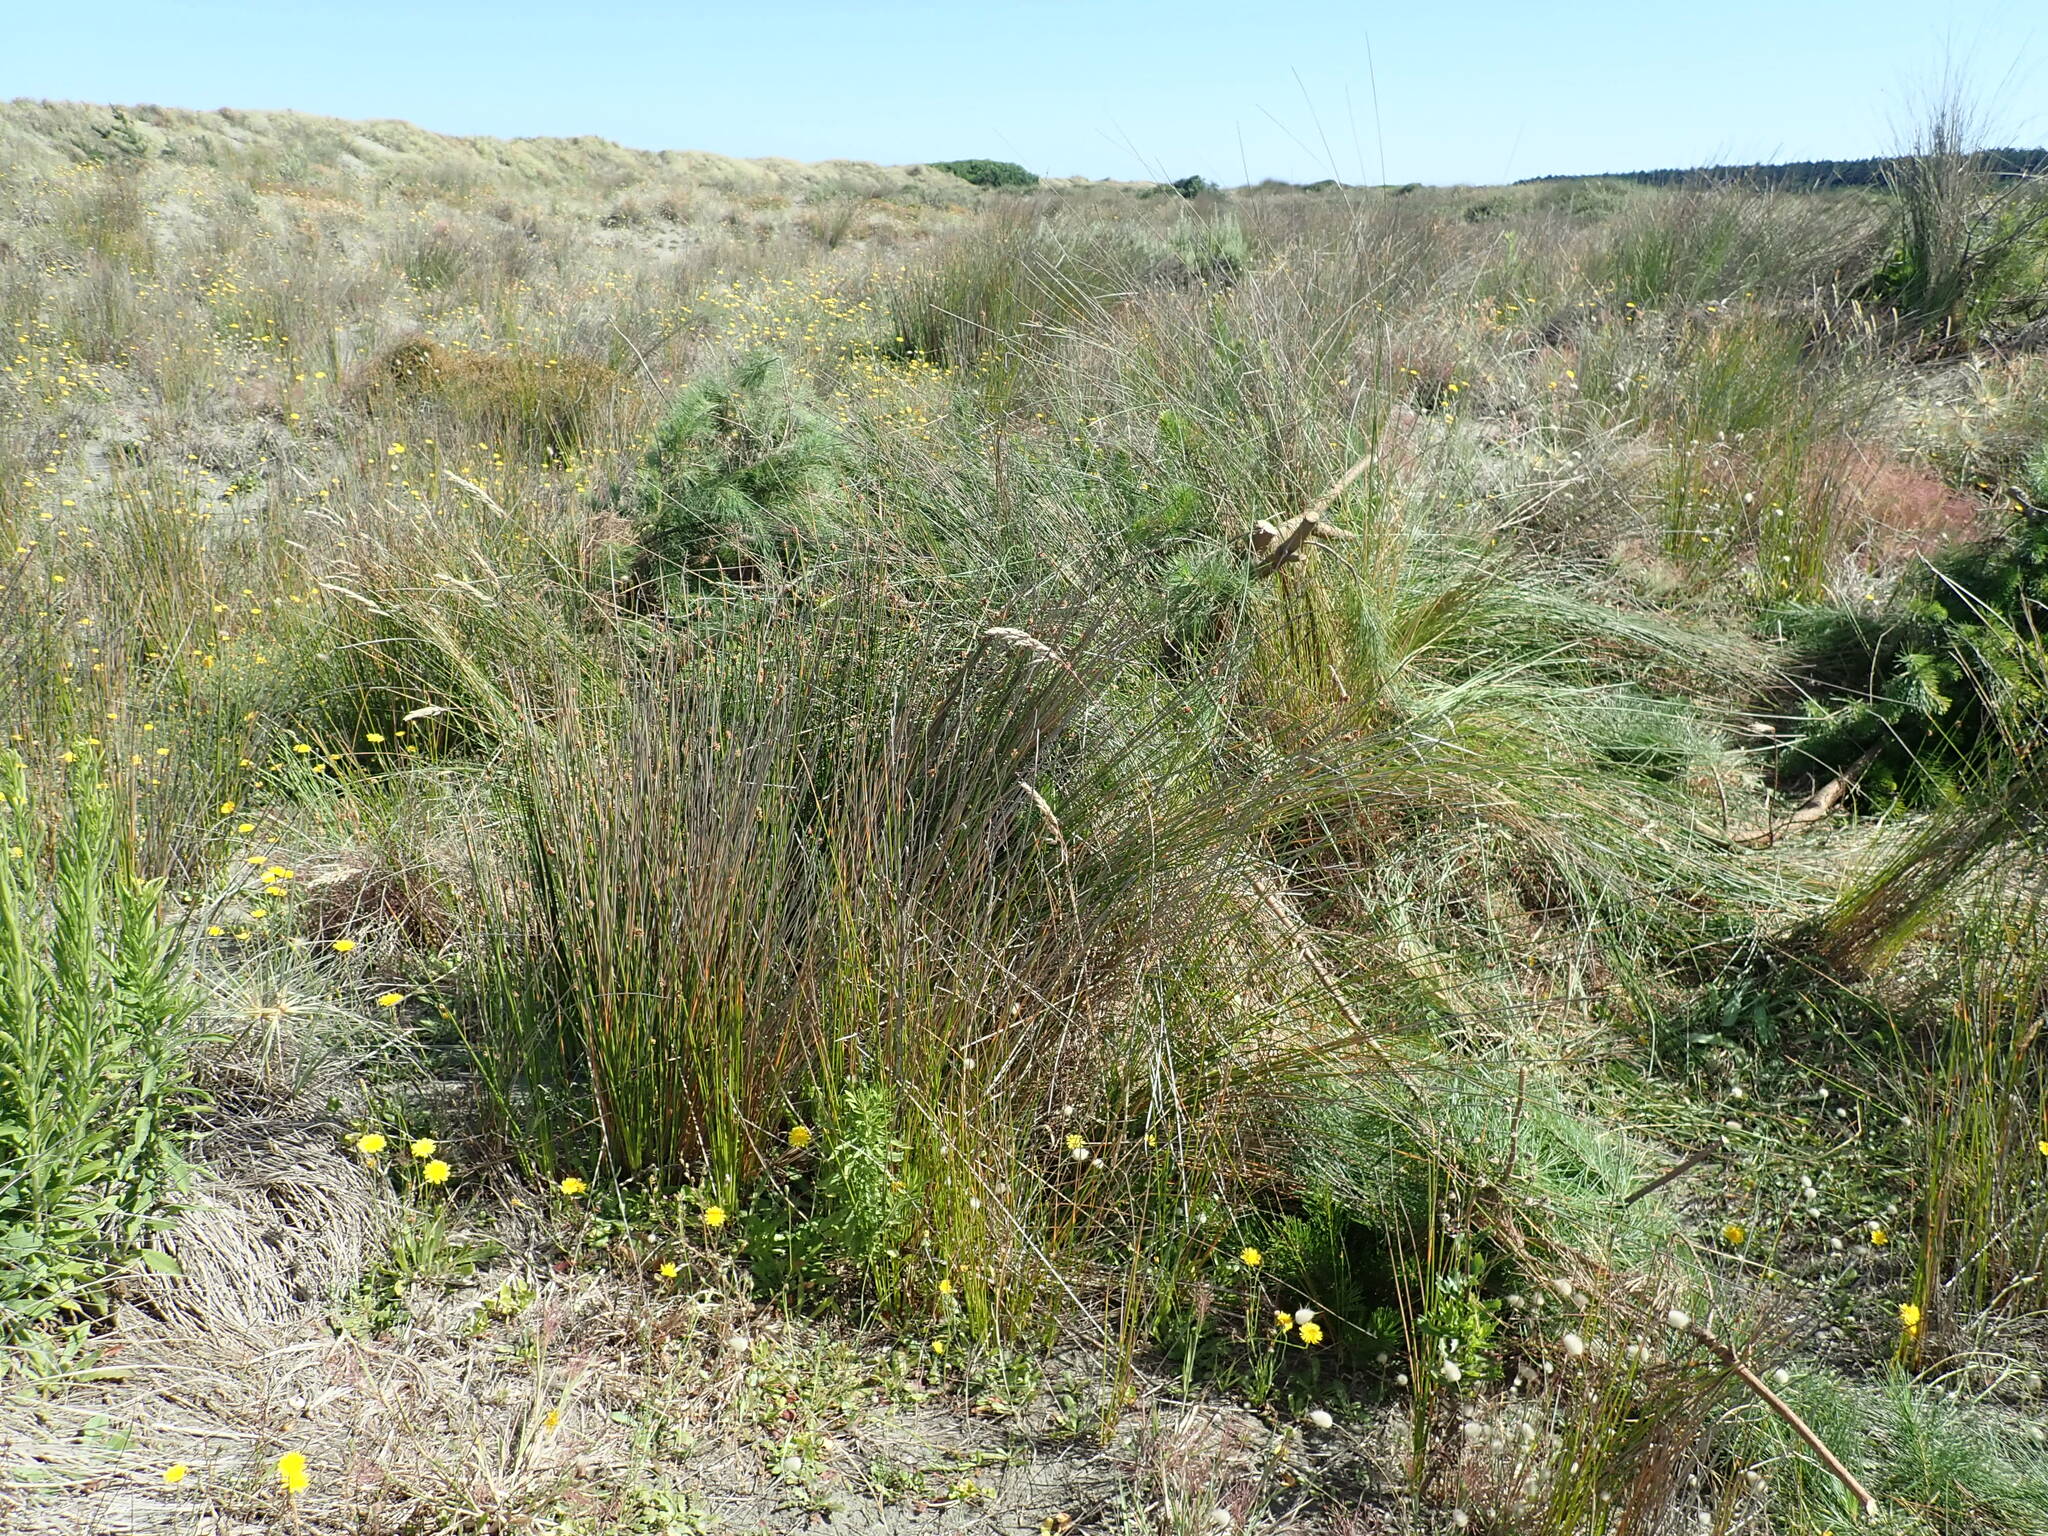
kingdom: Plantae
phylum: Tracheophyta
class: Liliopsida
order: Poales
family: Cyperaceae
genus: Ficinia
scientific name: Ficinia nodosa
